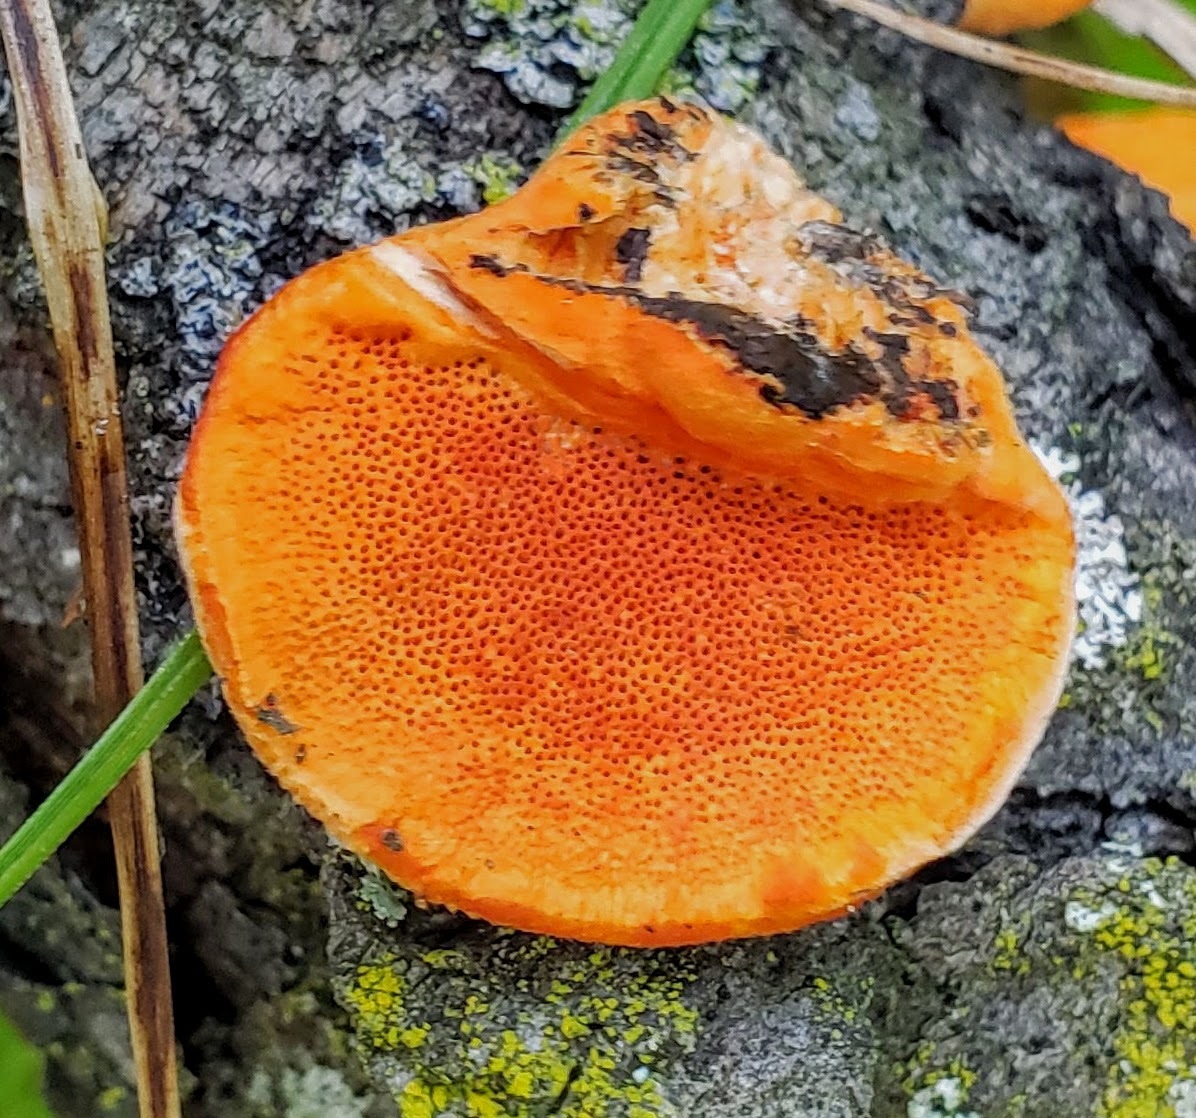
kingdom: Fungi
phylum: Basidiomycota
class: Agaricomycetes
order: Polyporales
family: Polyporaceae
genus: Trametes
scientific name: Trametes cinnabarina
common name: Northern cinnabar polypore
